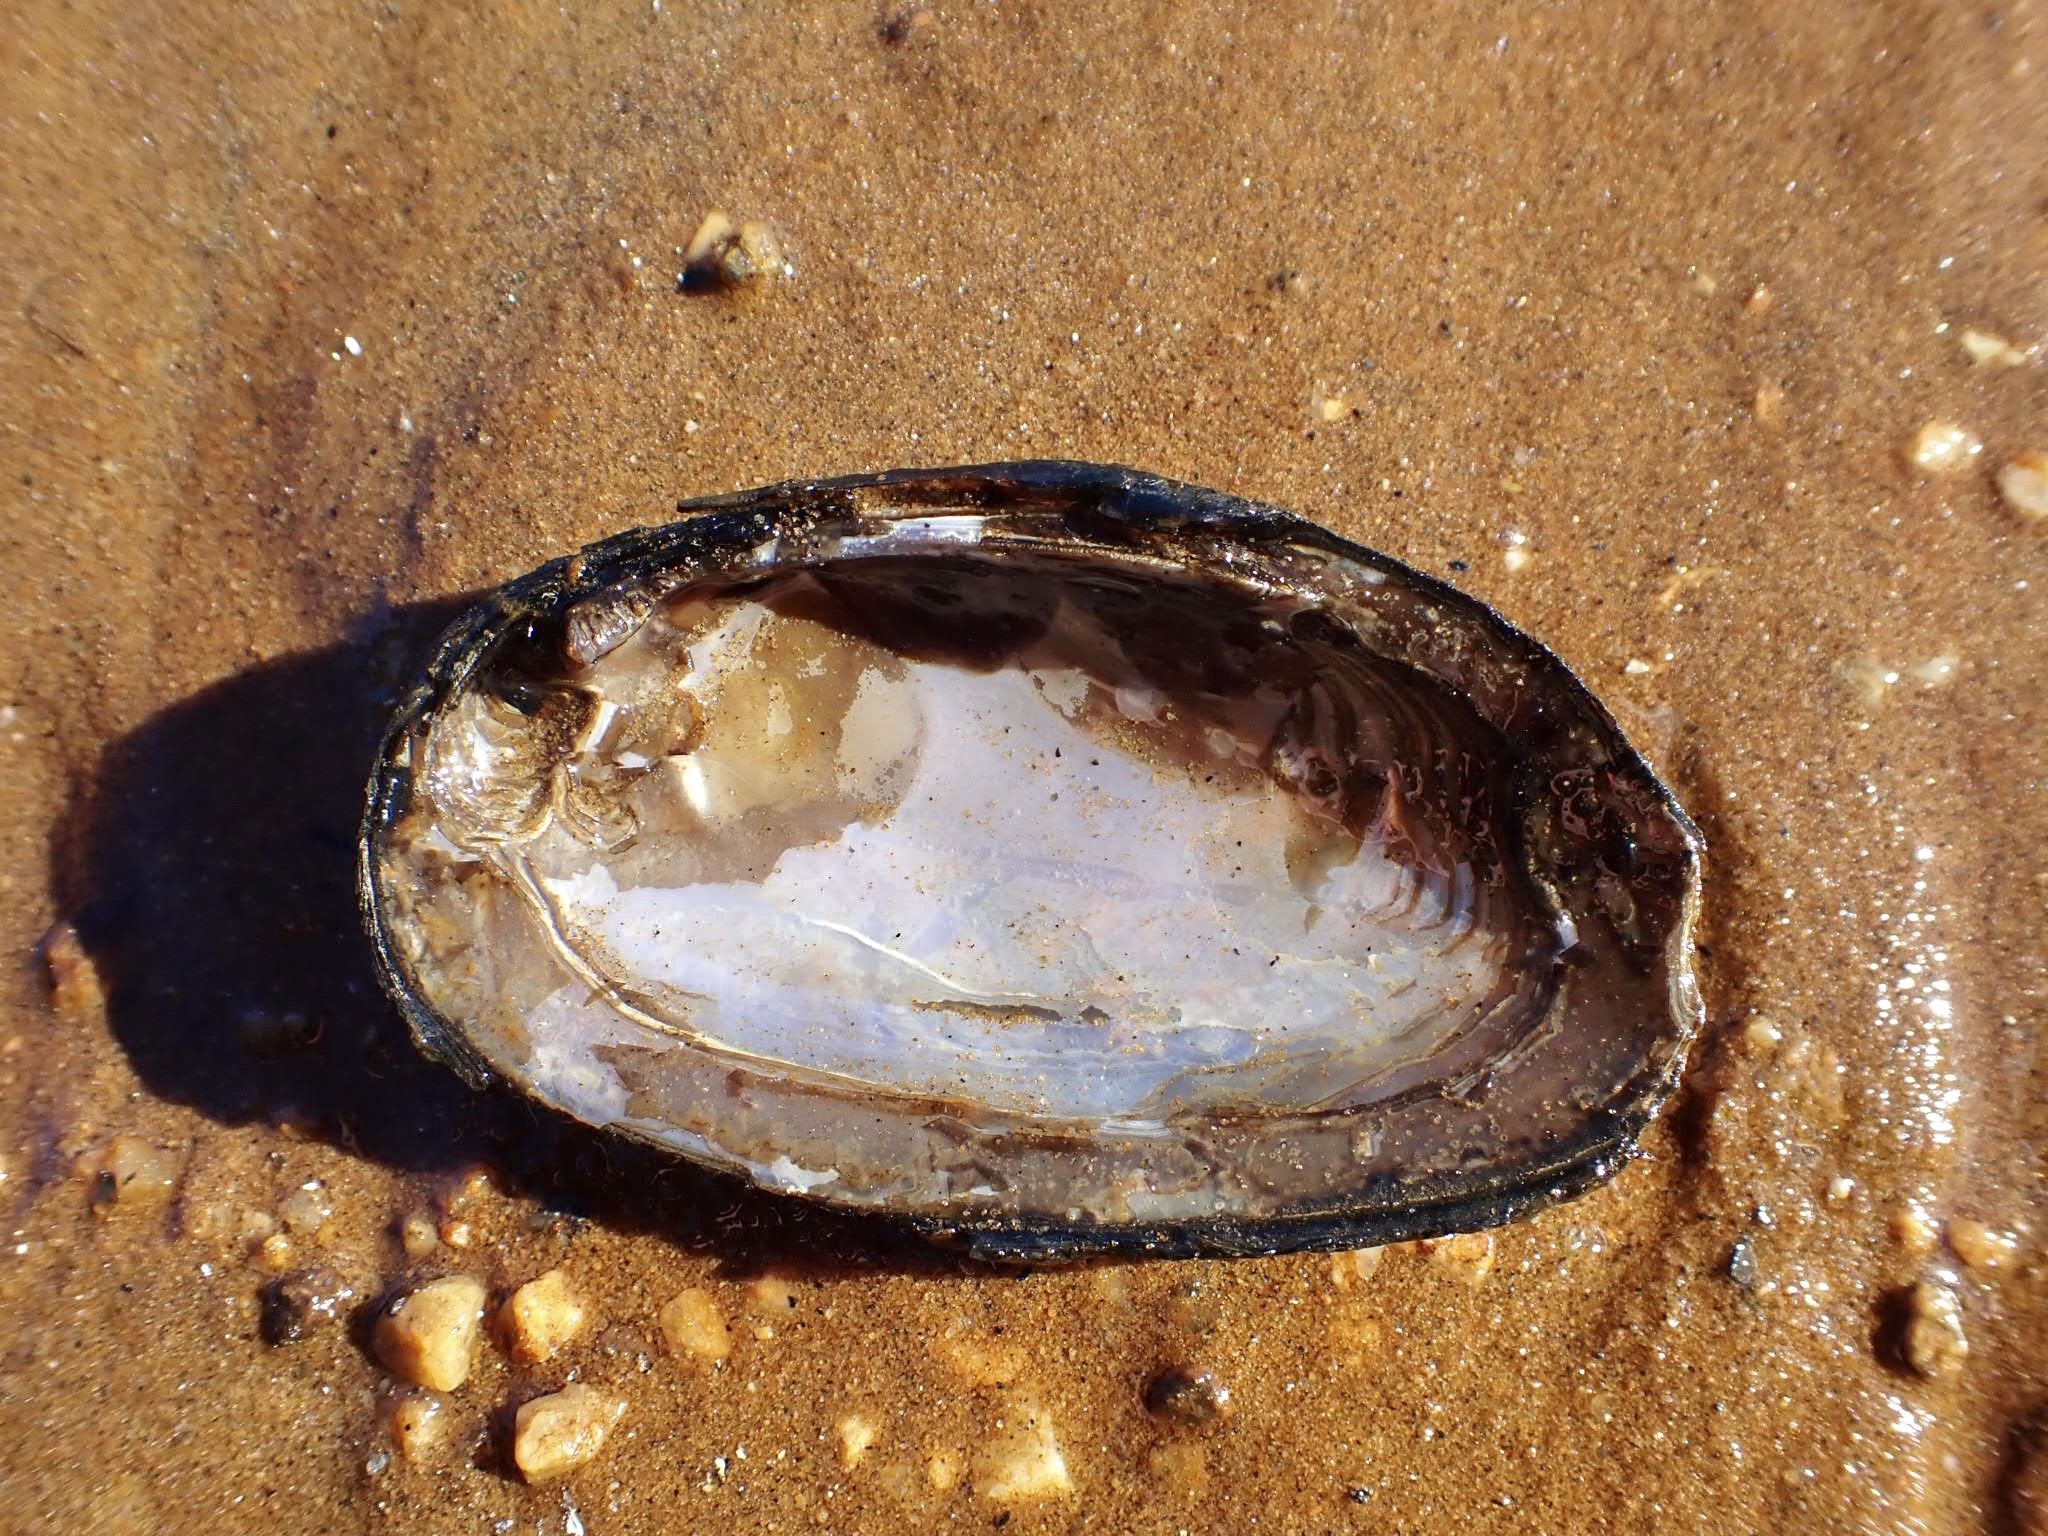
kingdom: Animalia
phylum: Mollusca
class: Bivalvia
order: Unionida
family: Unionidae
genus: Elliptio
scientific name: Elliptio complanata
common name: Eastern elliptio
